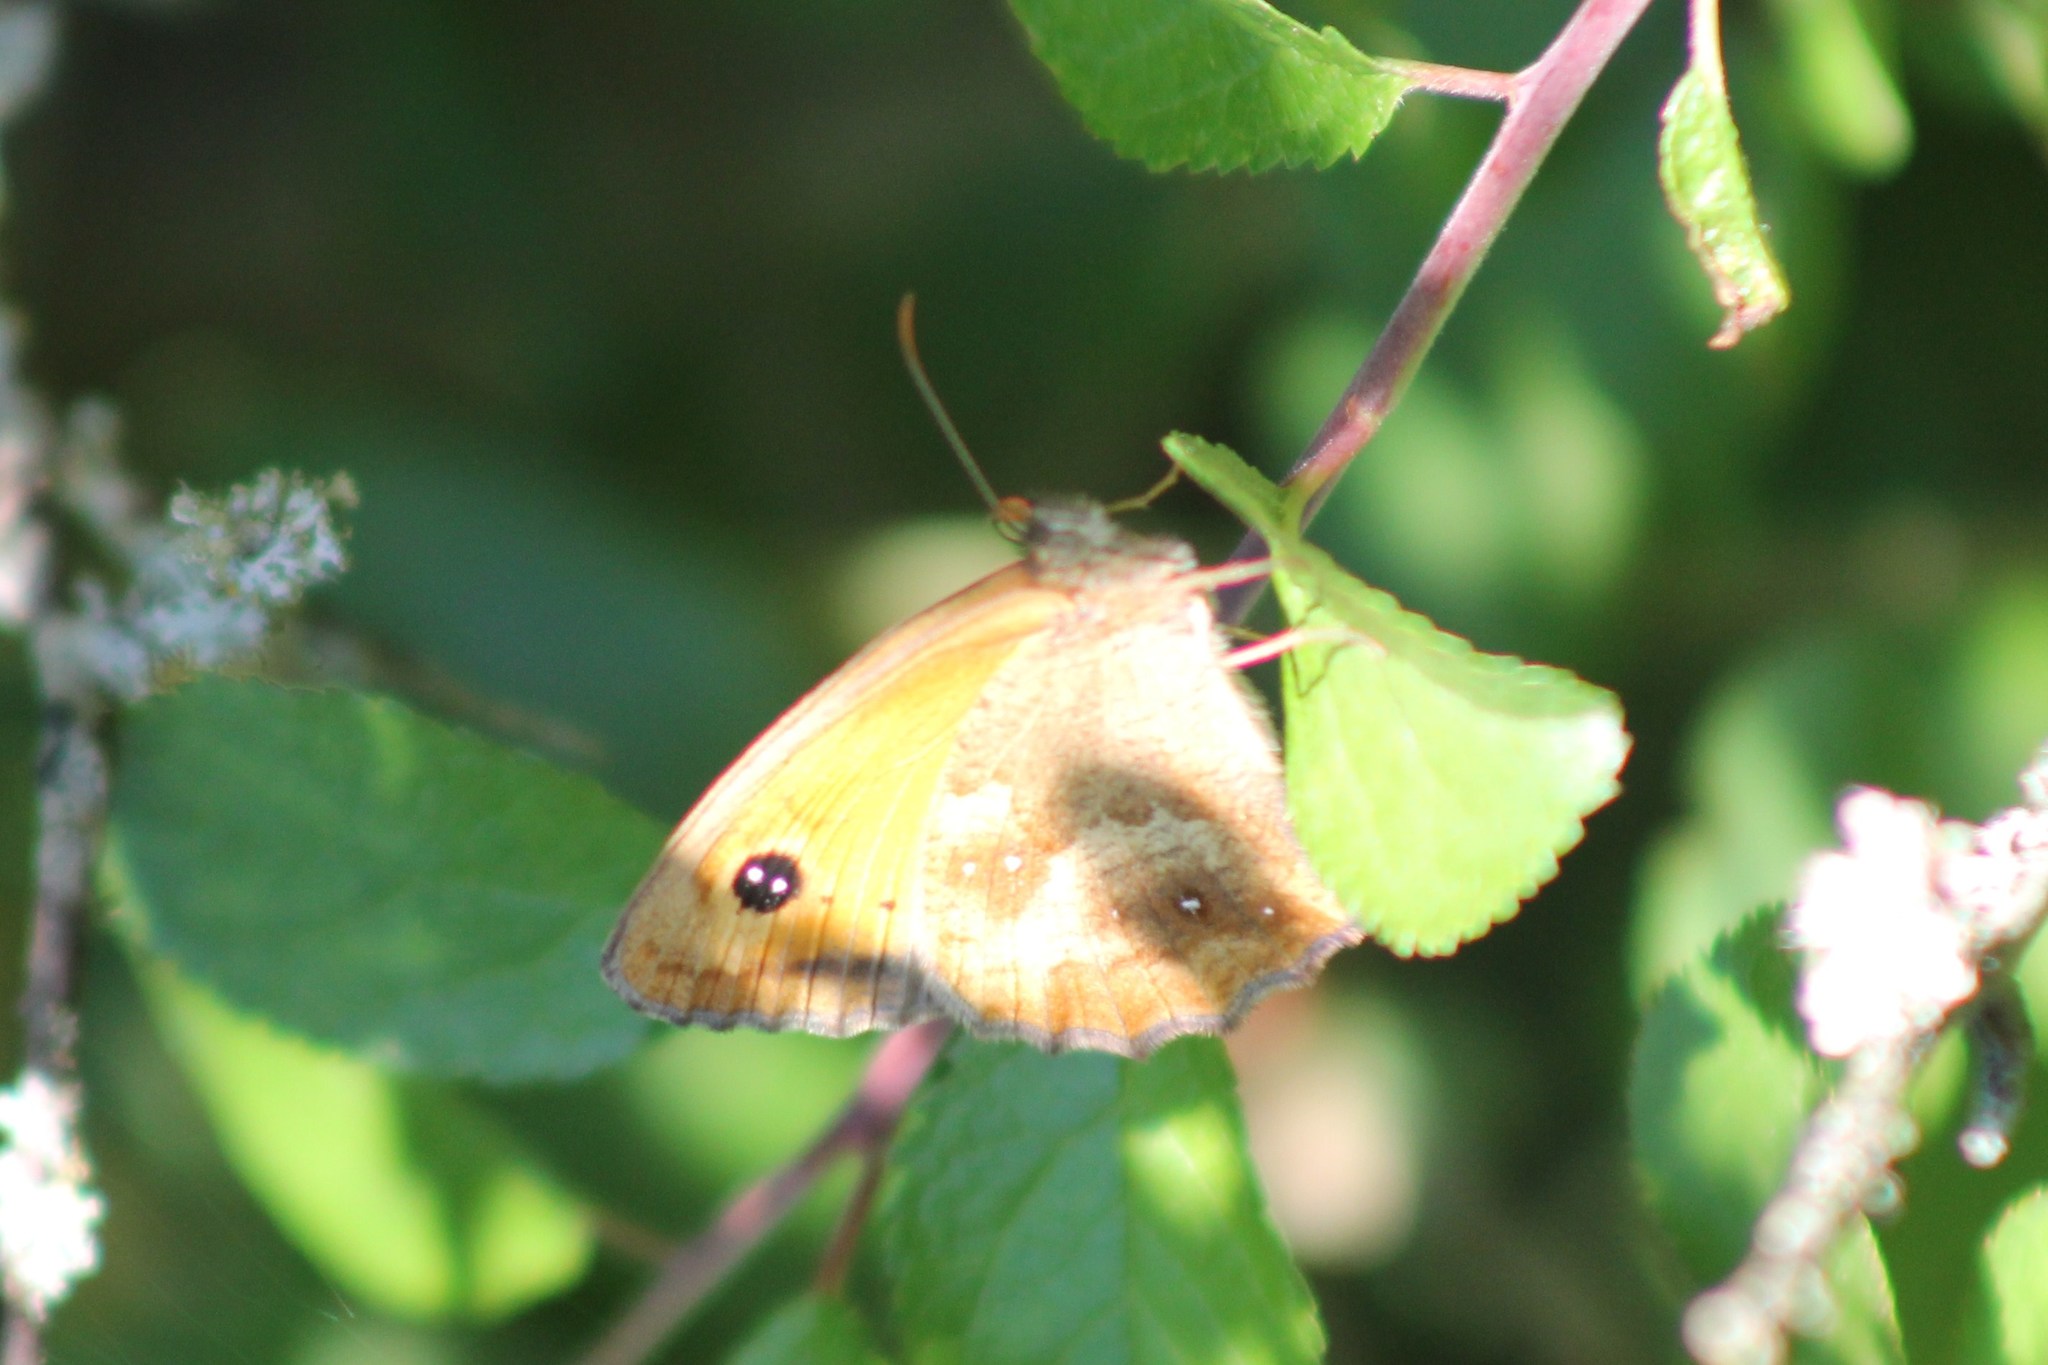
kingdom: Animalia
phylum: Arthropoda
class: Insecta
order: Lepidoptera
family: Nymphalidae
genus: Pyronia
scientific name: Pyronia tithonus
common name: Gatekeeper
